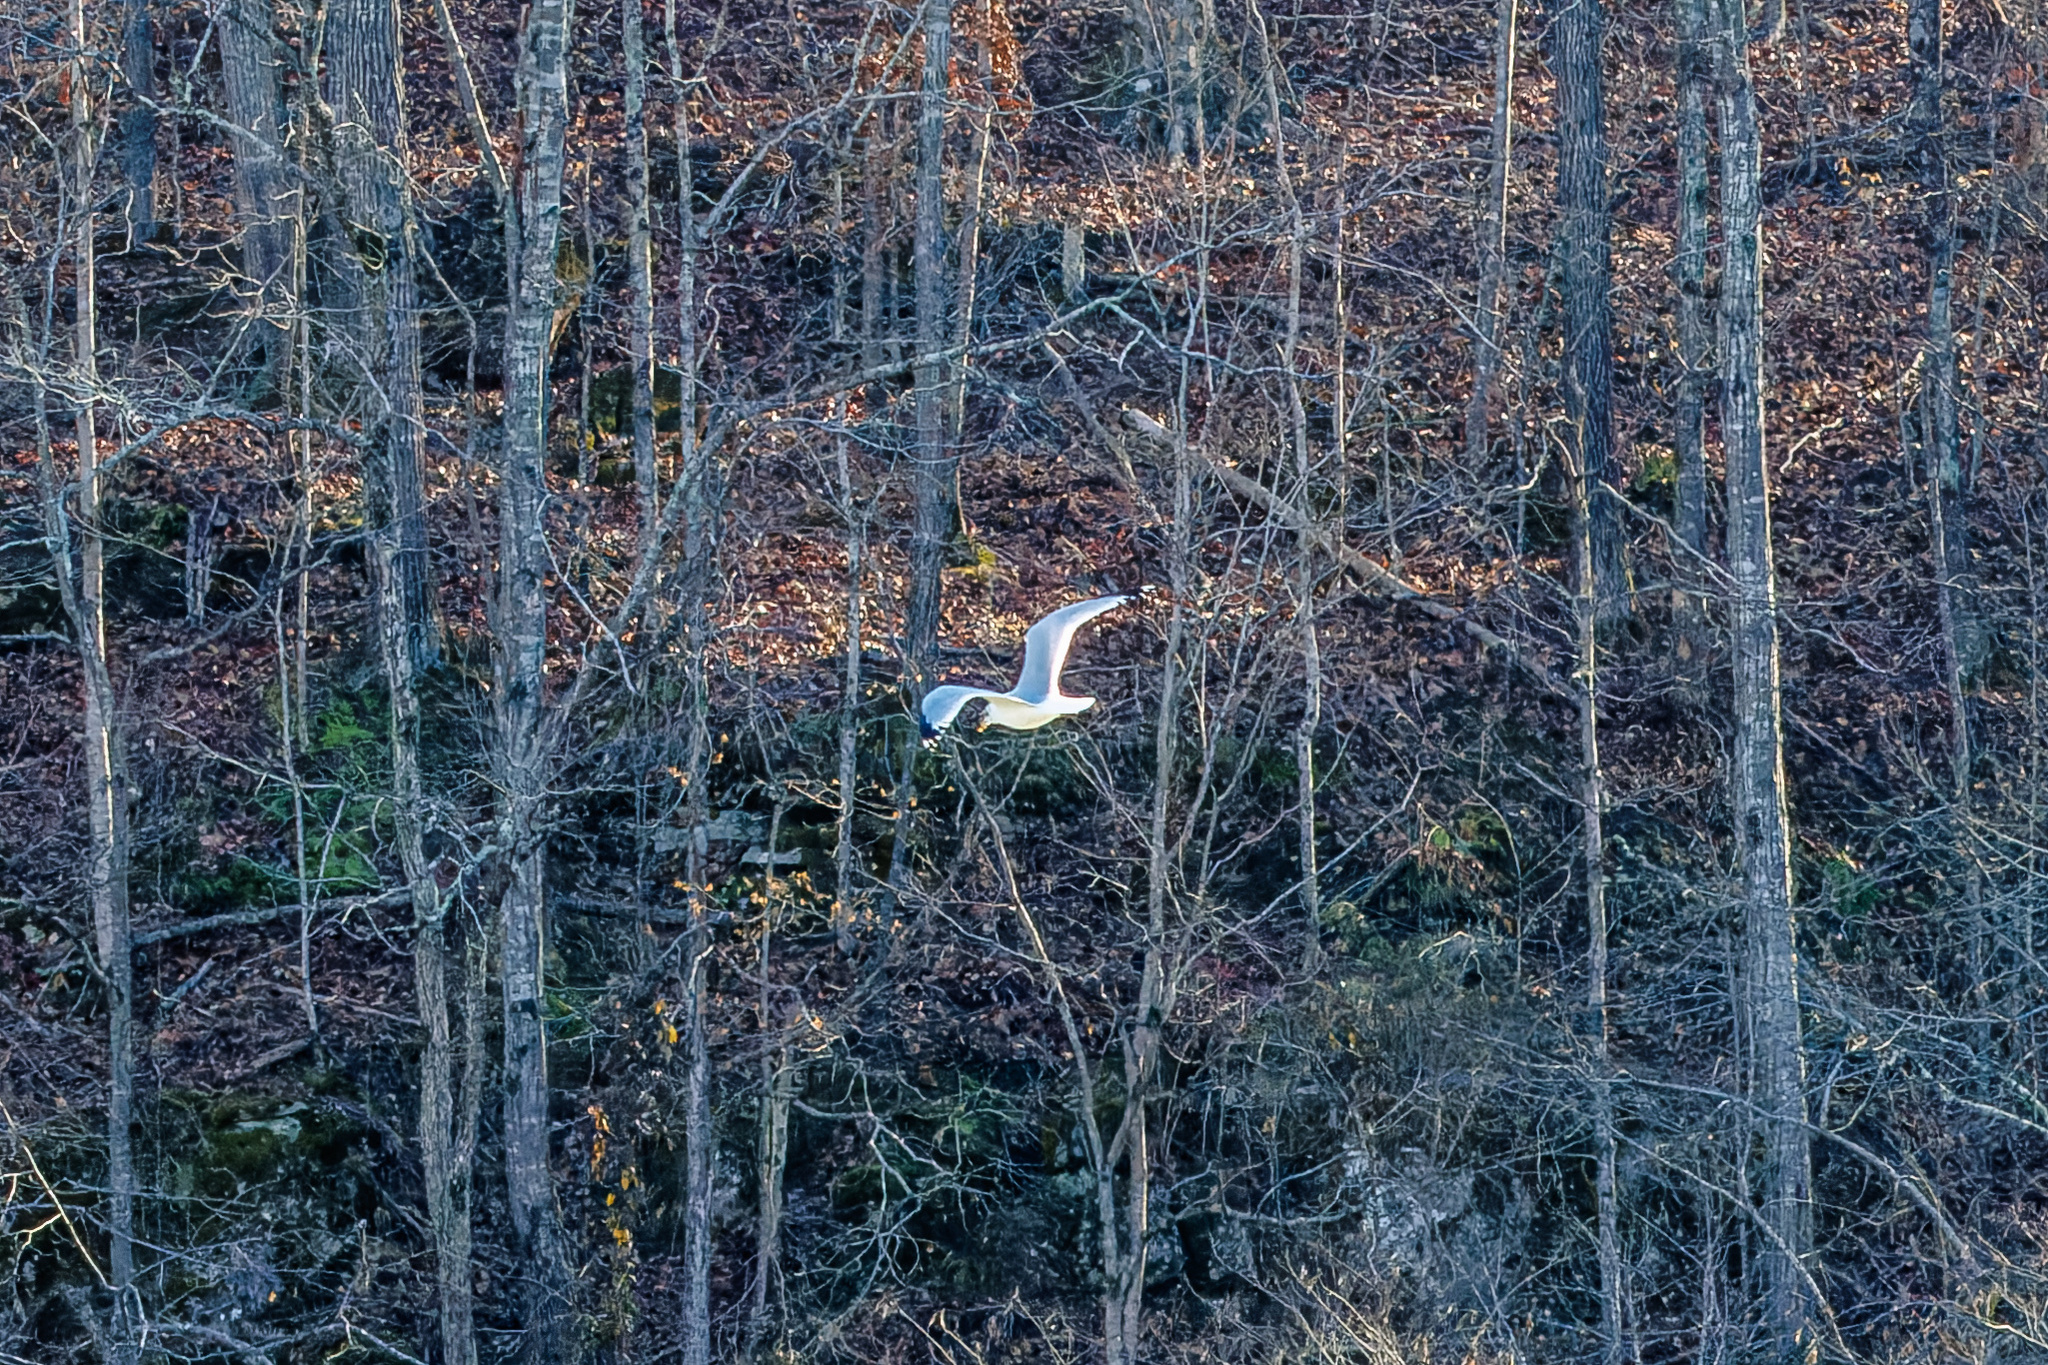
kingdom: Animalia
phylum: Chordata
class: Aves
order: Charadriiformes
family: Laridae
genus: Larus
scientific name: Larus delawarensis
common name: Ring-billed gull
